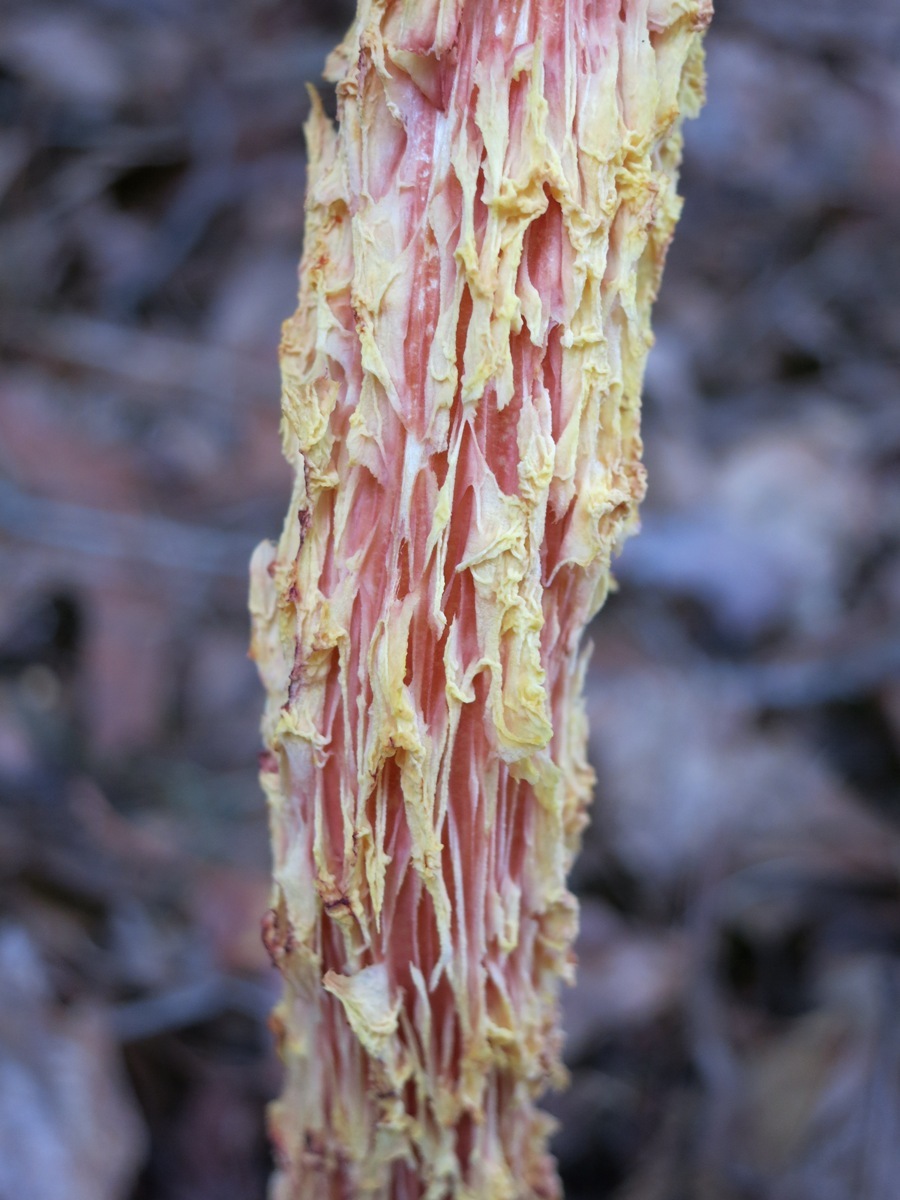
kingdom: Fungi
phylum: Basidiomycota
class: Agaricomycetes
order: Boletales
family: Boletaceae
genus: Aureoboletus
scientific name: Aureoboletus betula
